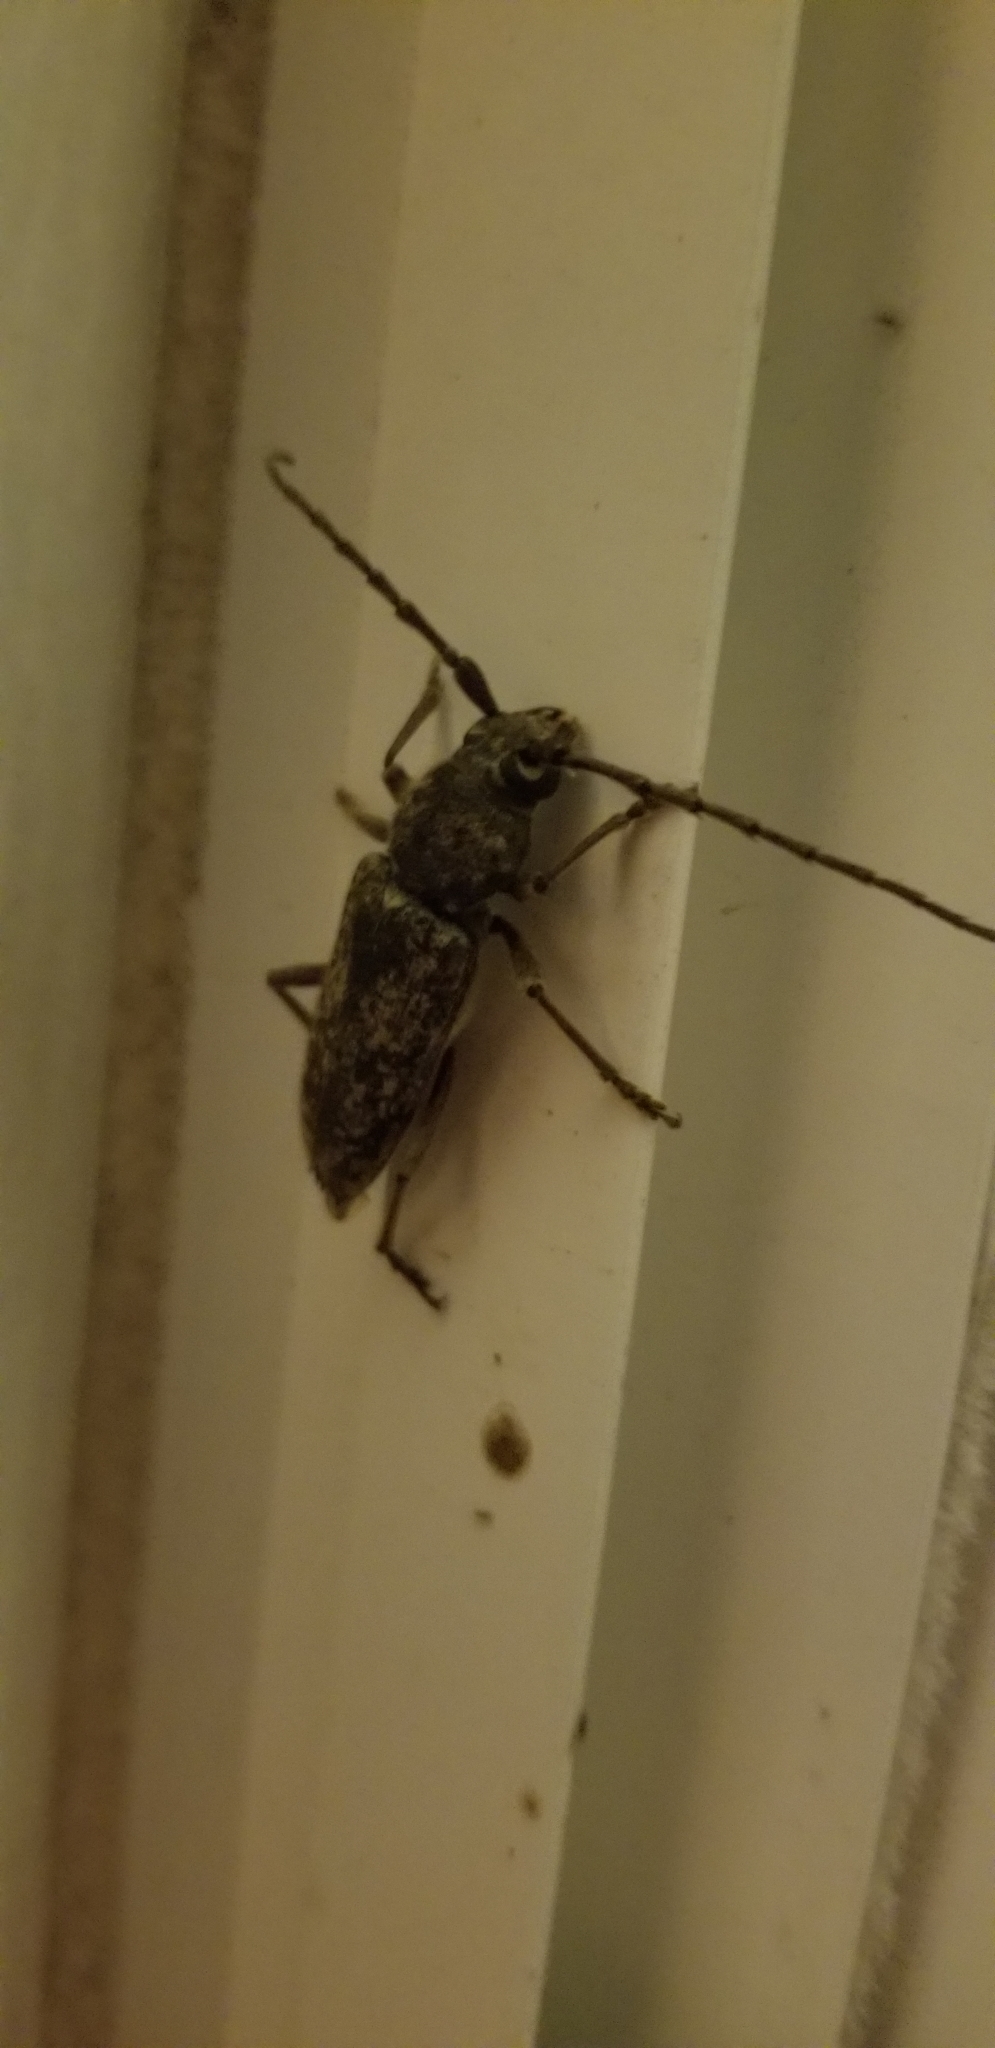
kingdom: Animalia
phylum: Arthropoda
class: Insecta
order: Coleoptera
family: Cerambycidae
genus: Enaphalodes
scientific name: Enaphalodes atomarius
